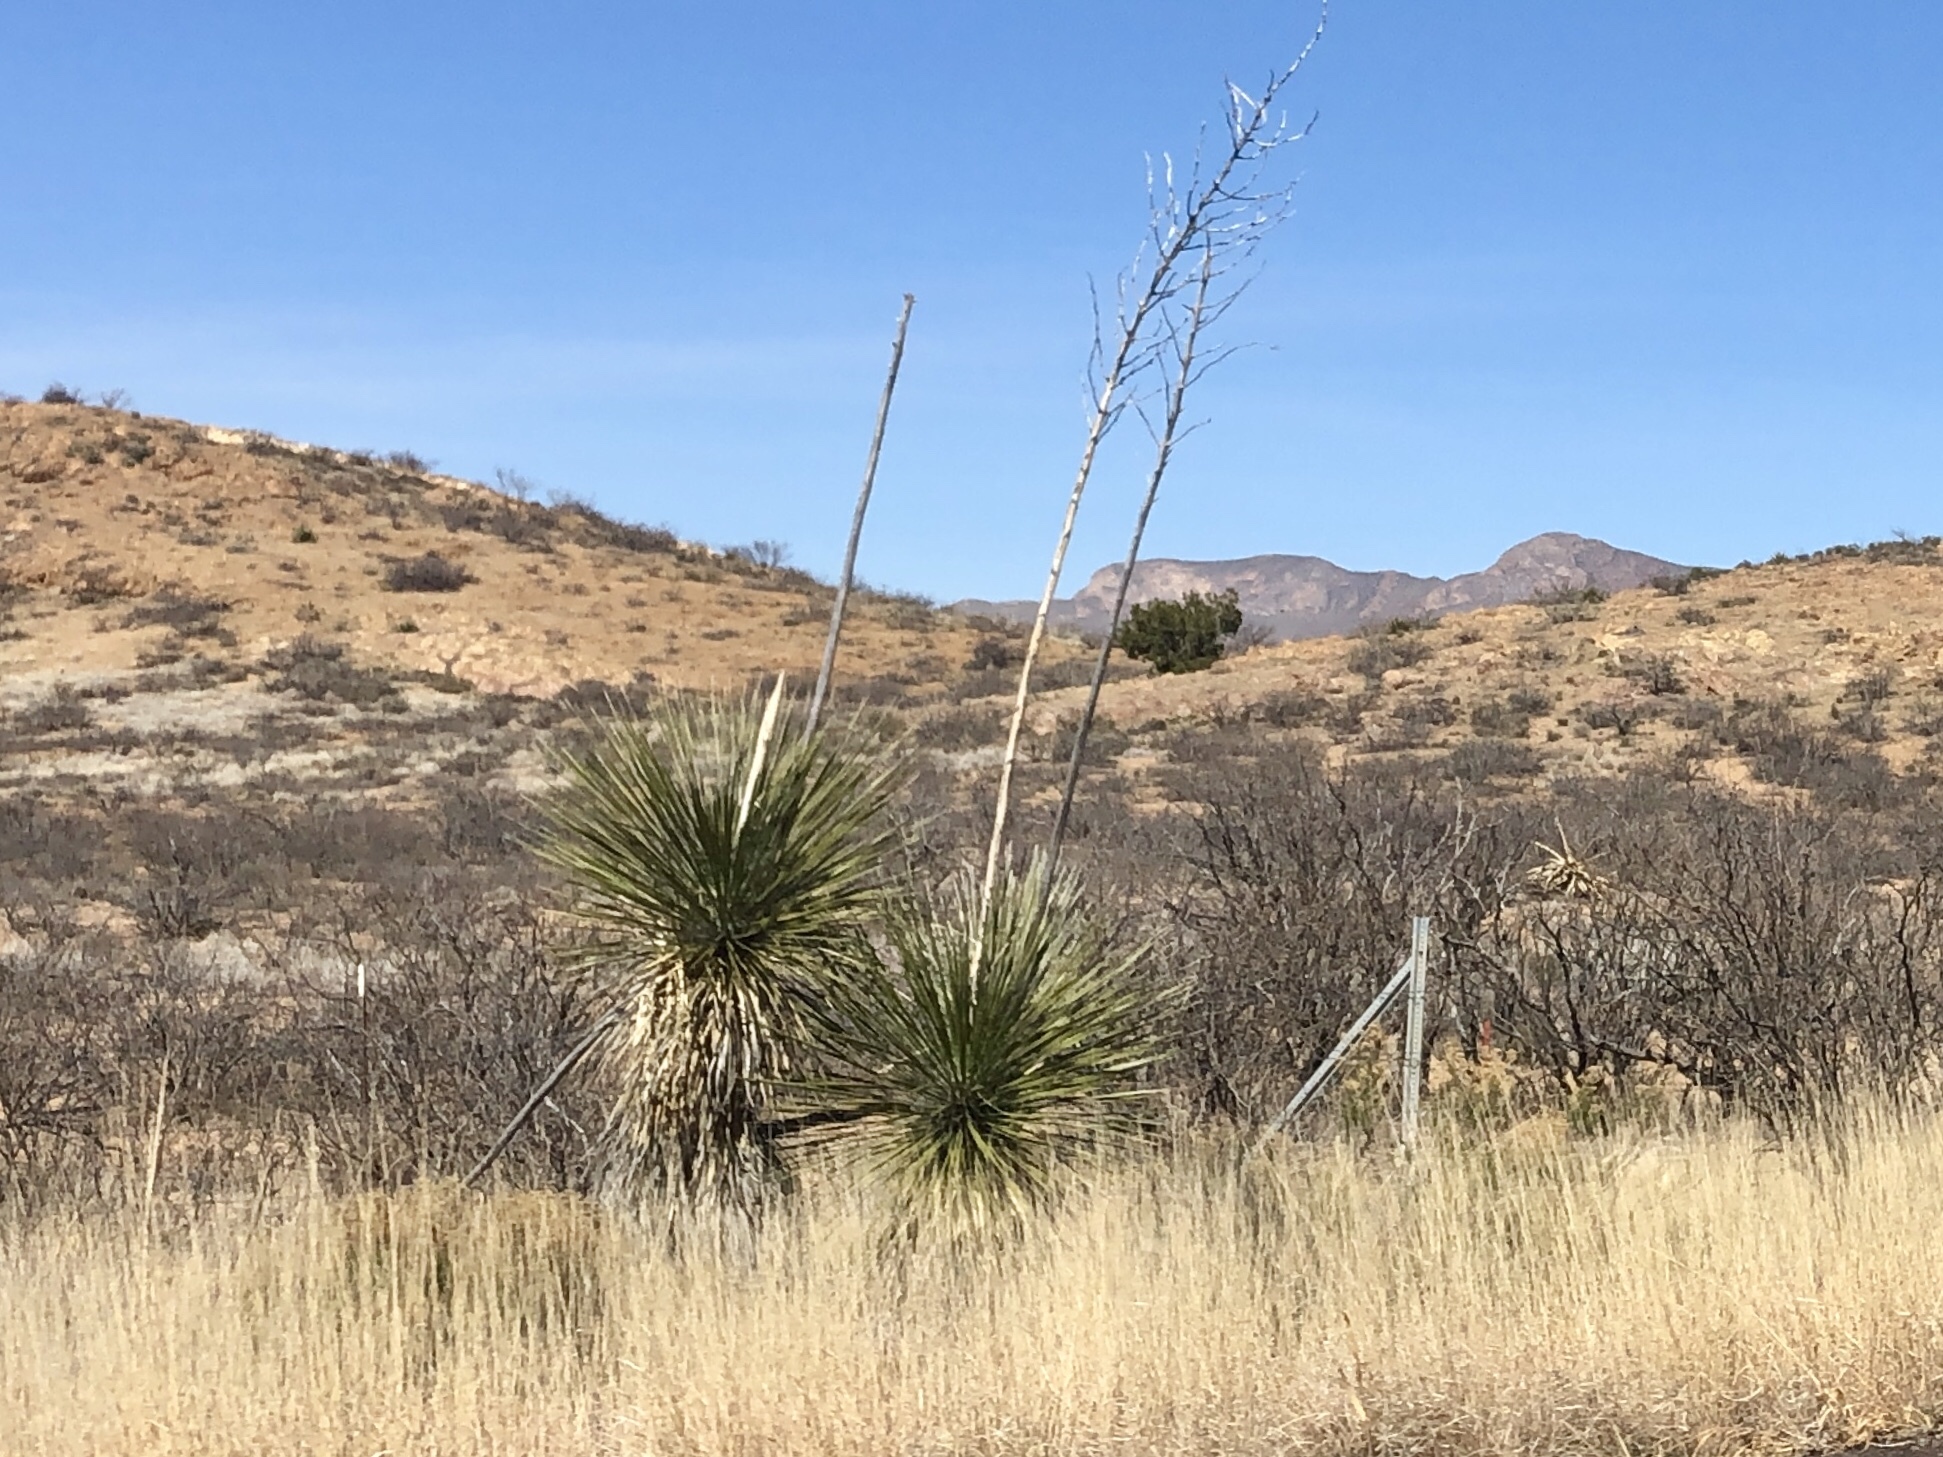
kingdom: Plantae
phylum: Tracheophyta
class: Liliopsida
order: Asparagales
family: Asparagaceae
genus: Yucca
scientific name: Yucca elata
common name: Palmella
